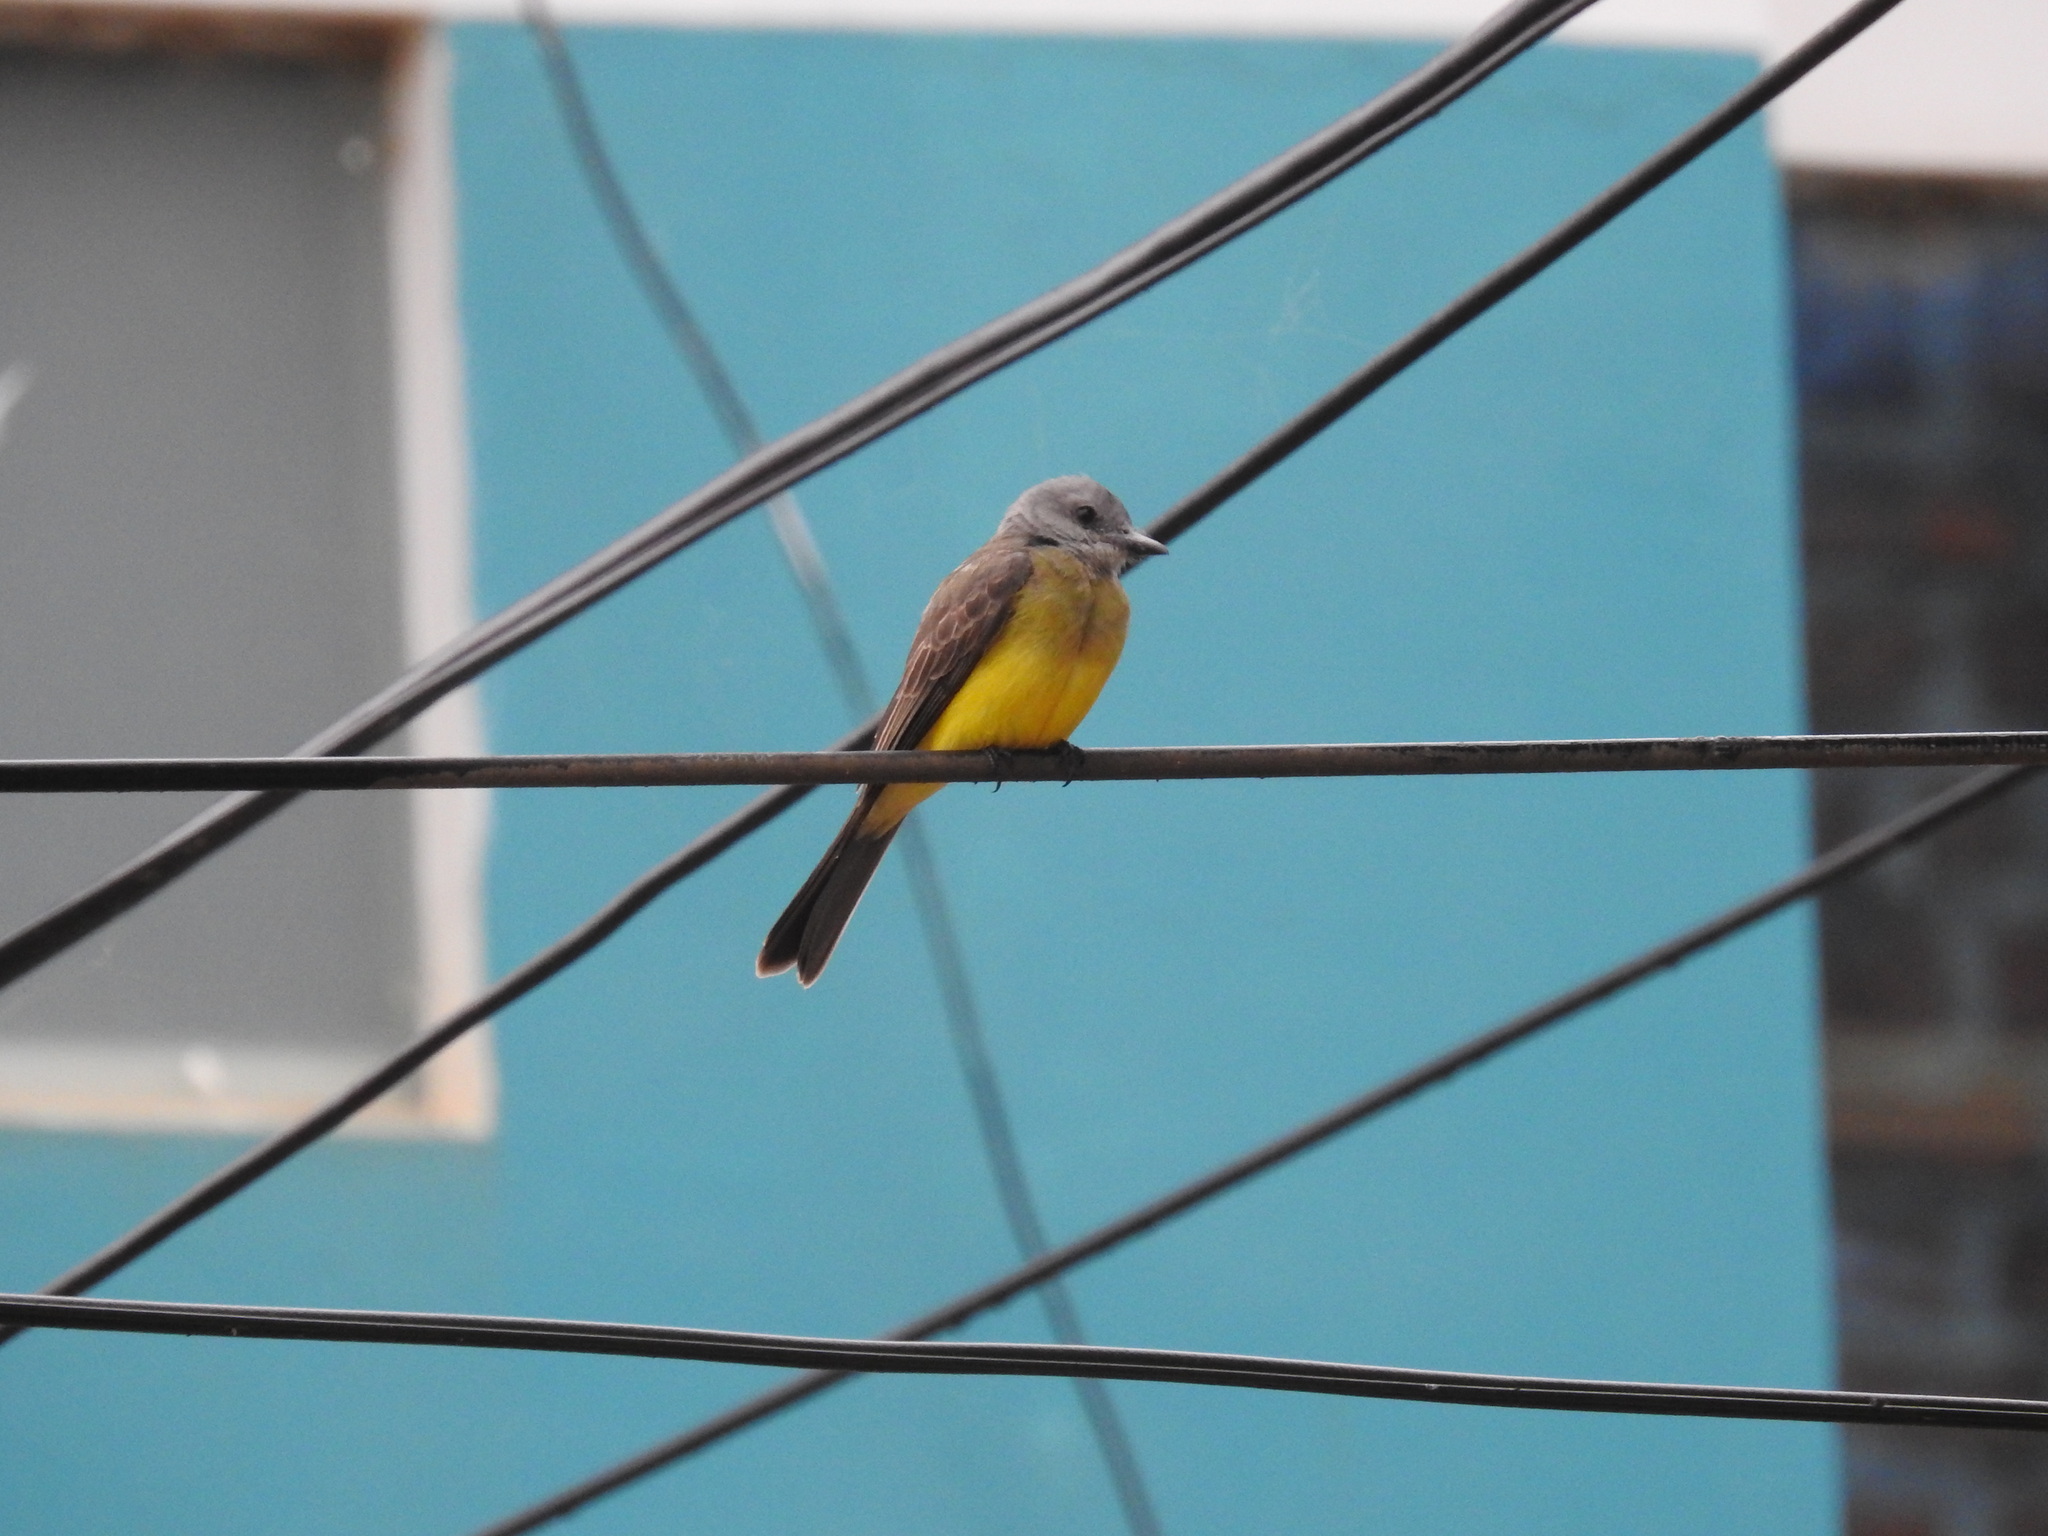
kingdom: Animalia
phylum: Chordata
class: Aves
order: Passeriformes
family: Tyrannidae
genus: Tyrannus
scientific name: Tyrannus melancholicus
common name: Tropical kingbird
